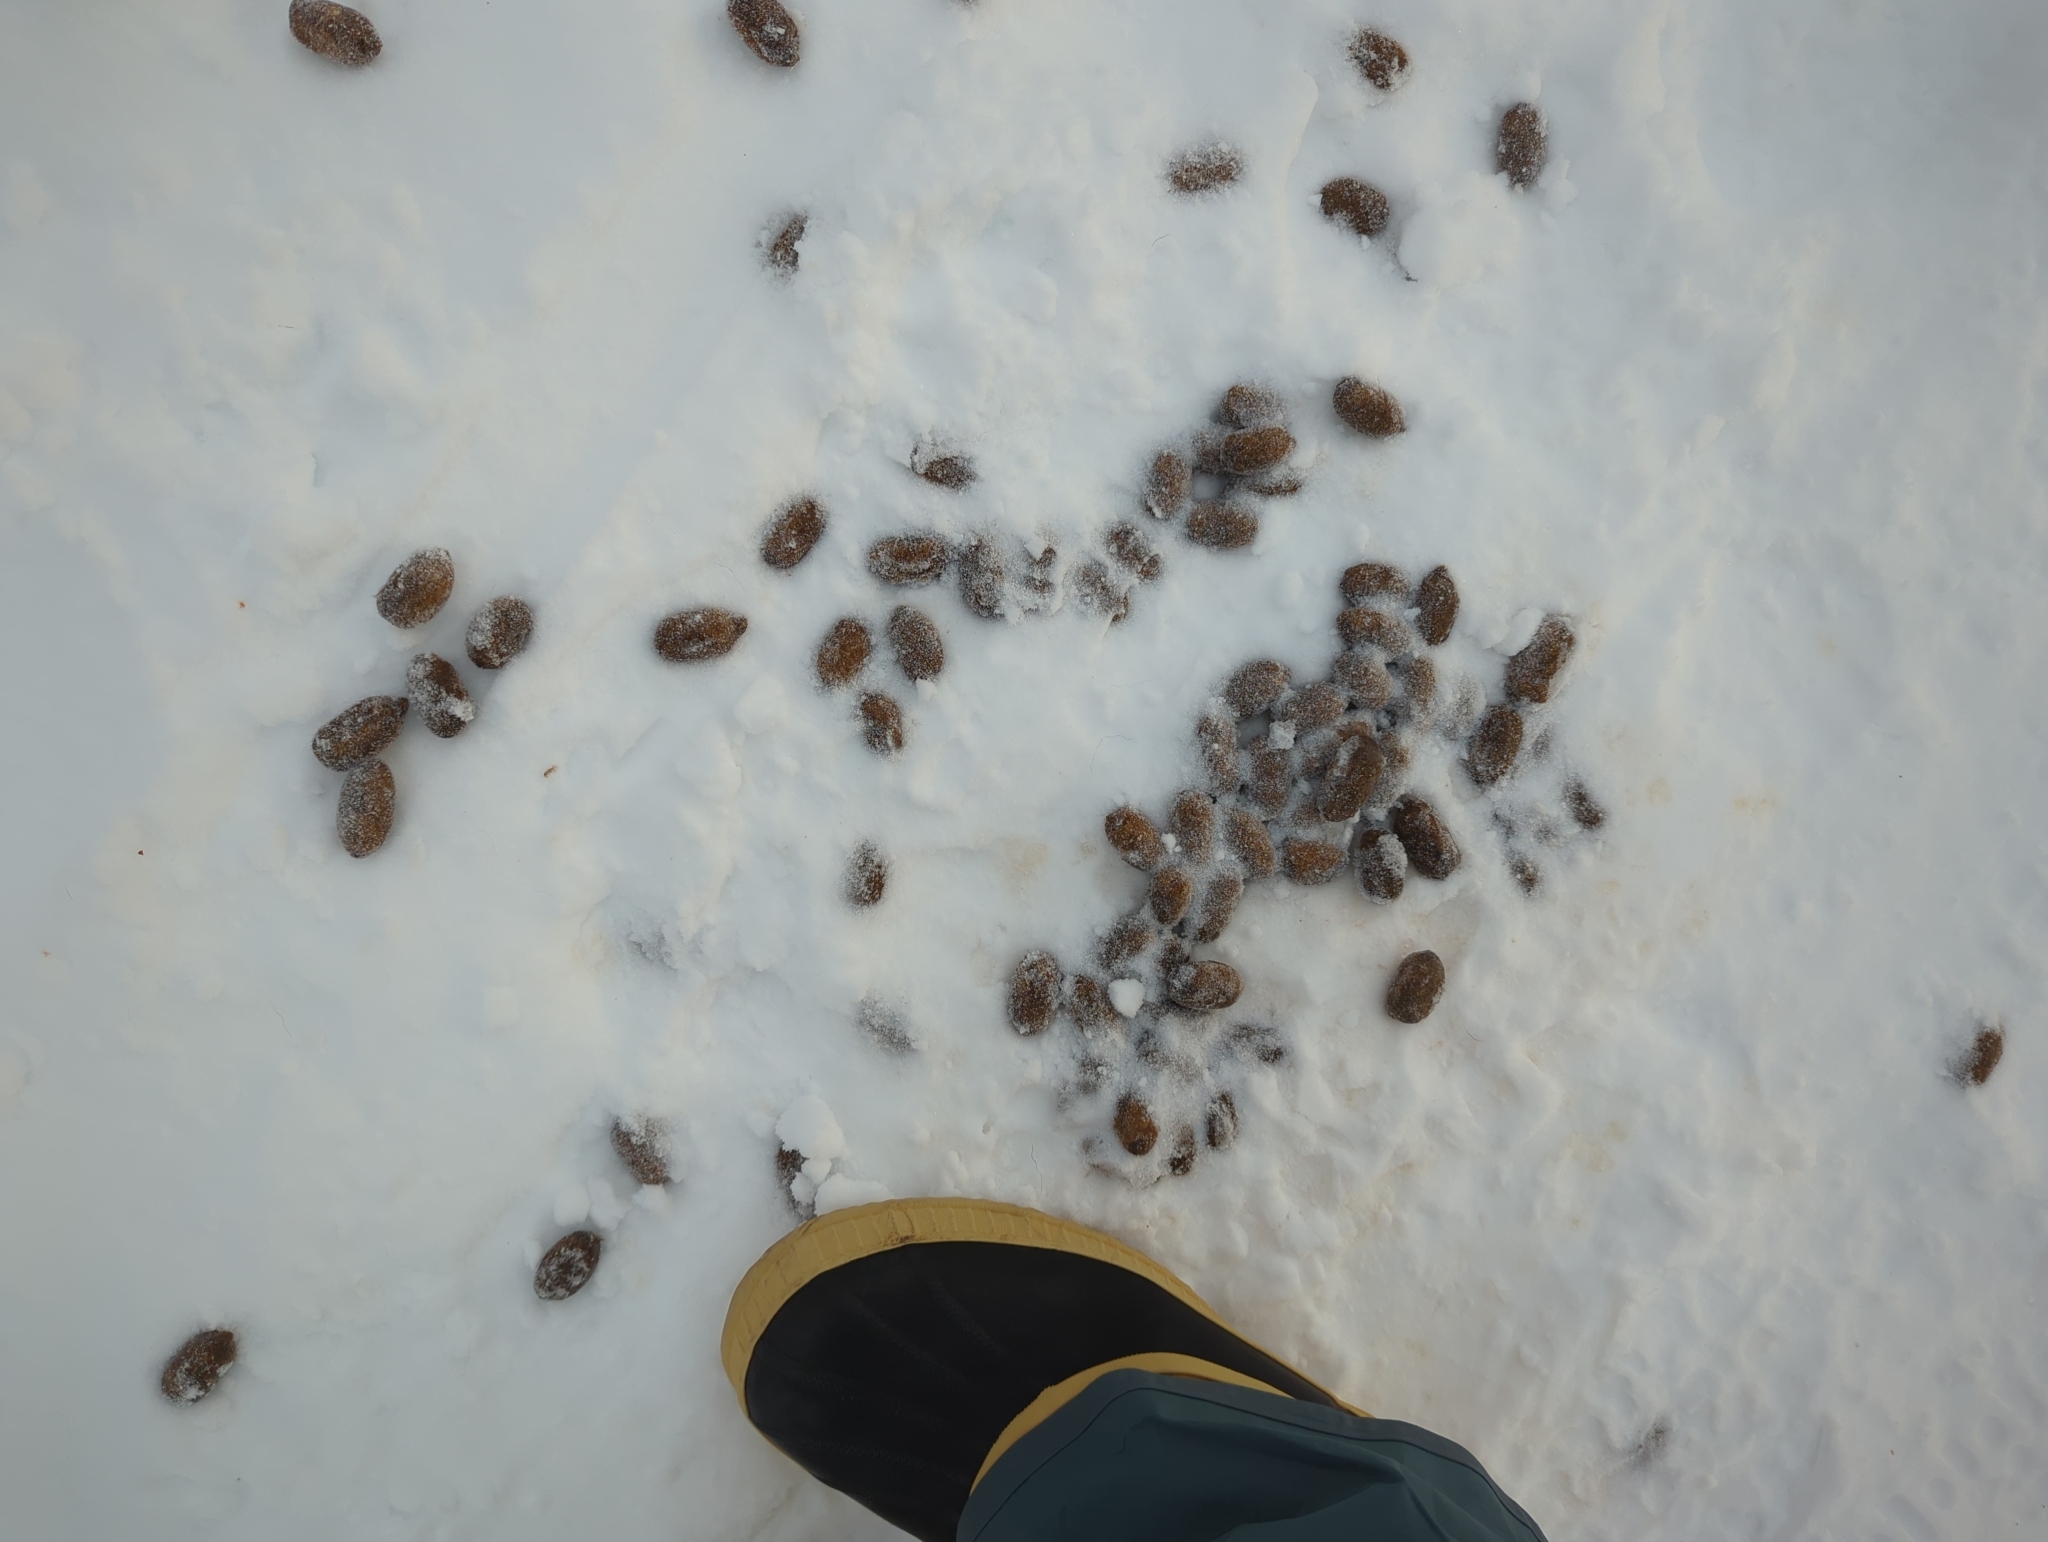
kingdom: Animalia
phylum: Chordata
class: Mammalia
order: Artiodactyla
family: Cervidae
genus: Alces
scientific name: Alces alces
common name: Moose
